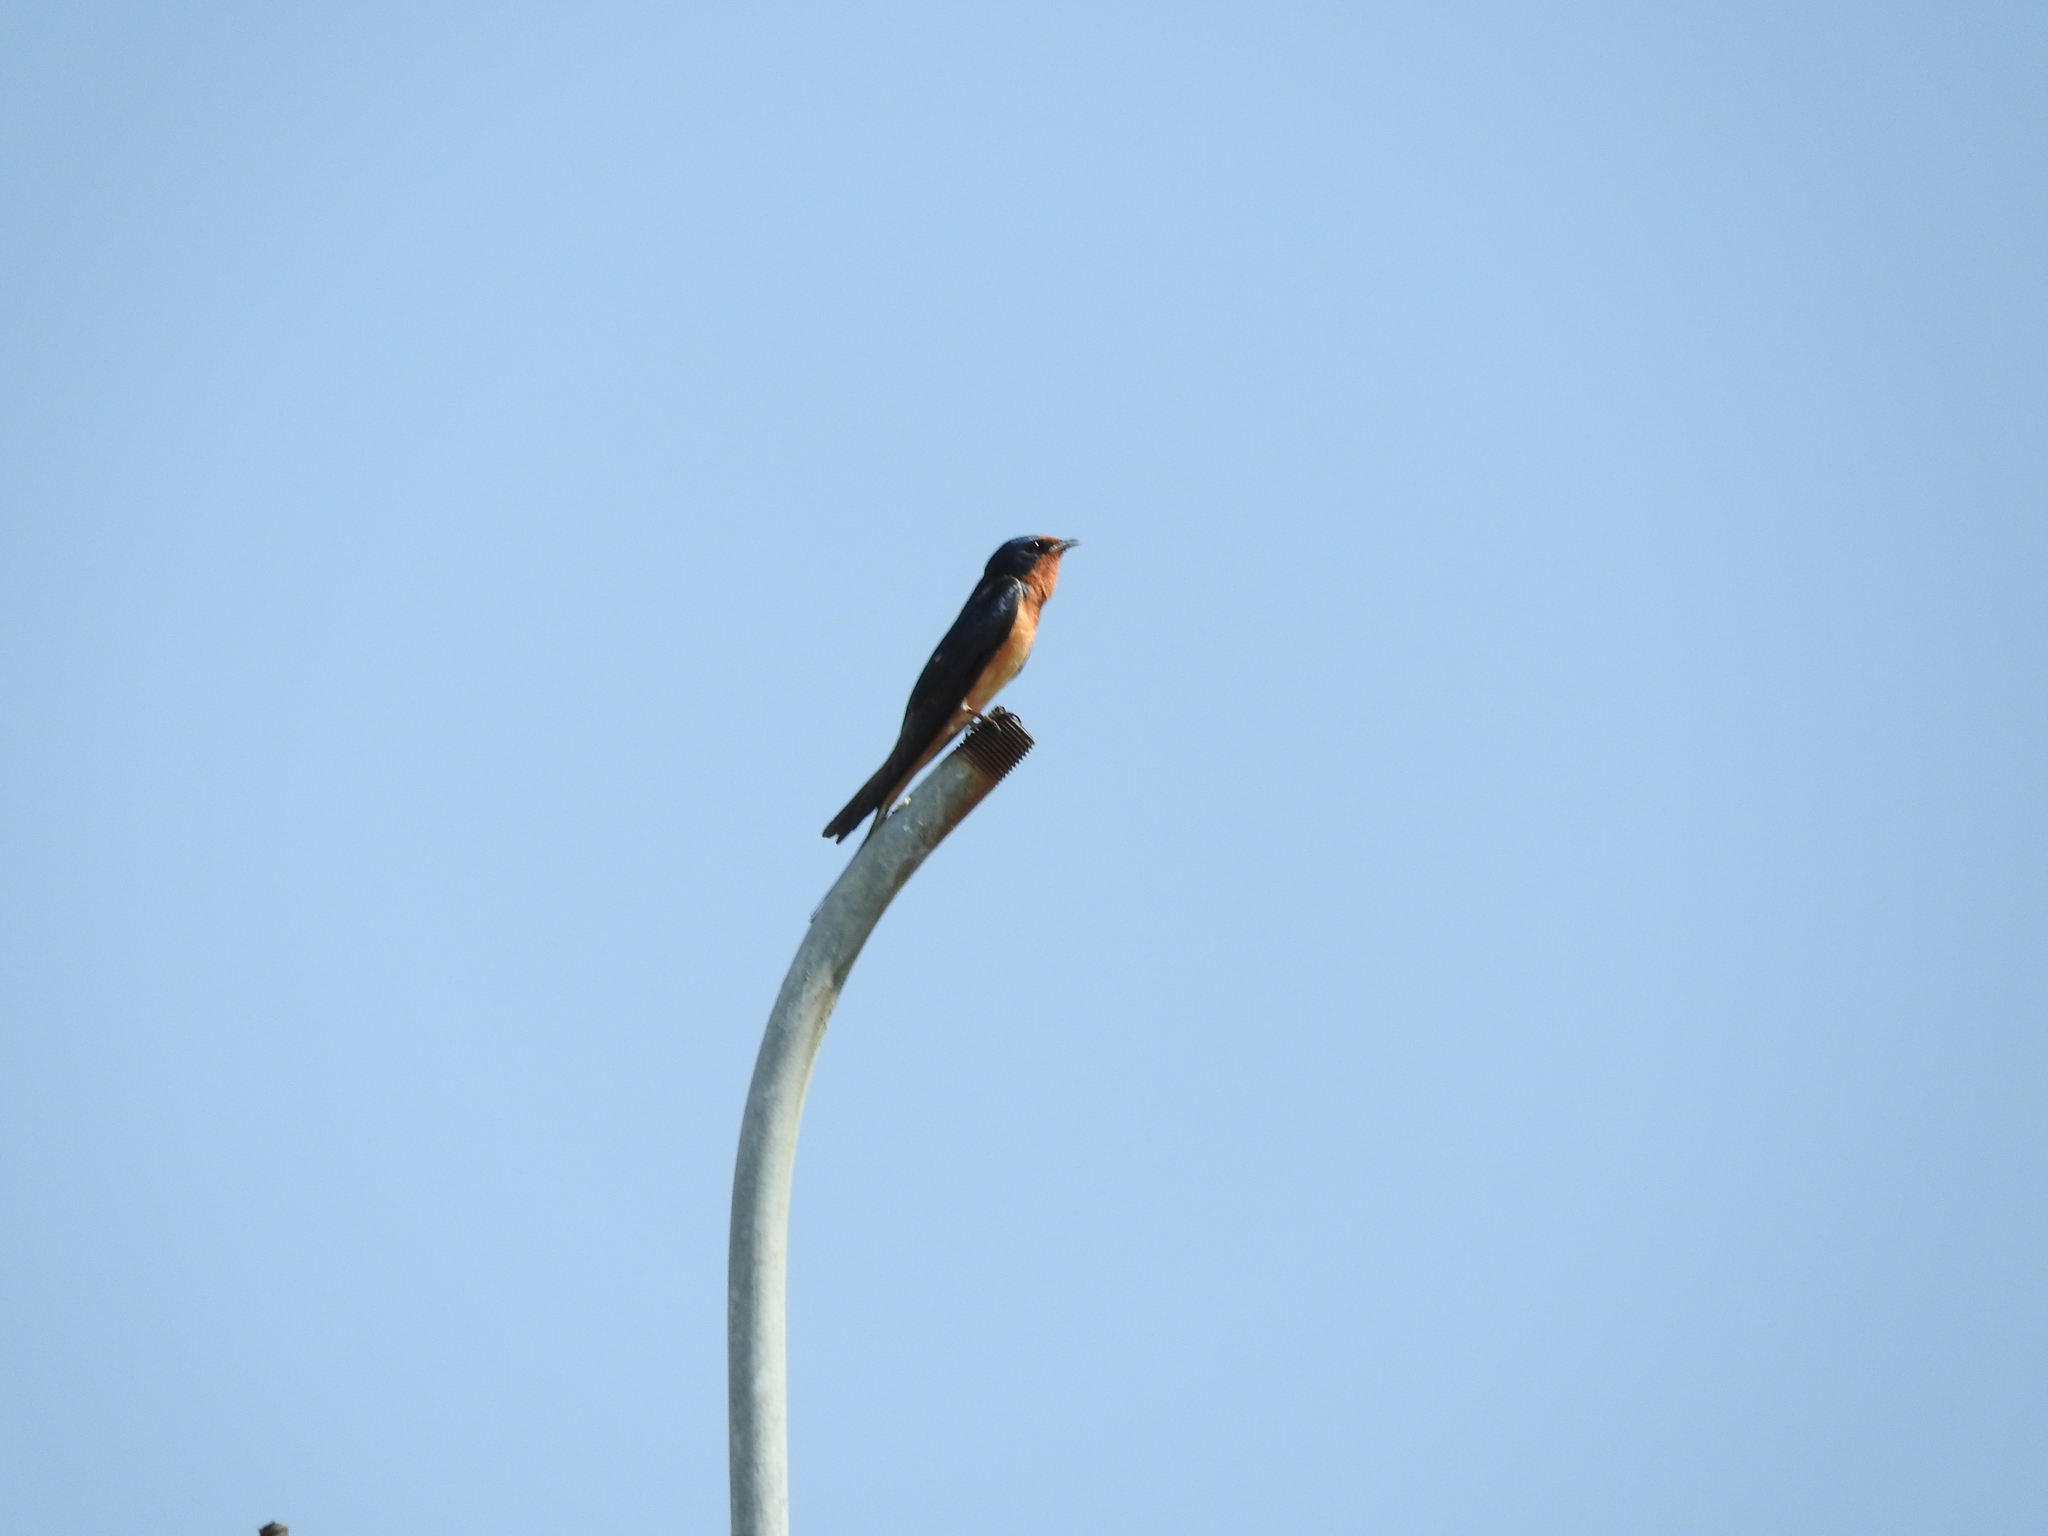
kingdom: Animalia
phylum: Chordata
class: Aves
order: Passeriformes
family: Hirundinidae
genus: Hirundo
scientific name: Hirundo rustica
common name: Barn swallow
